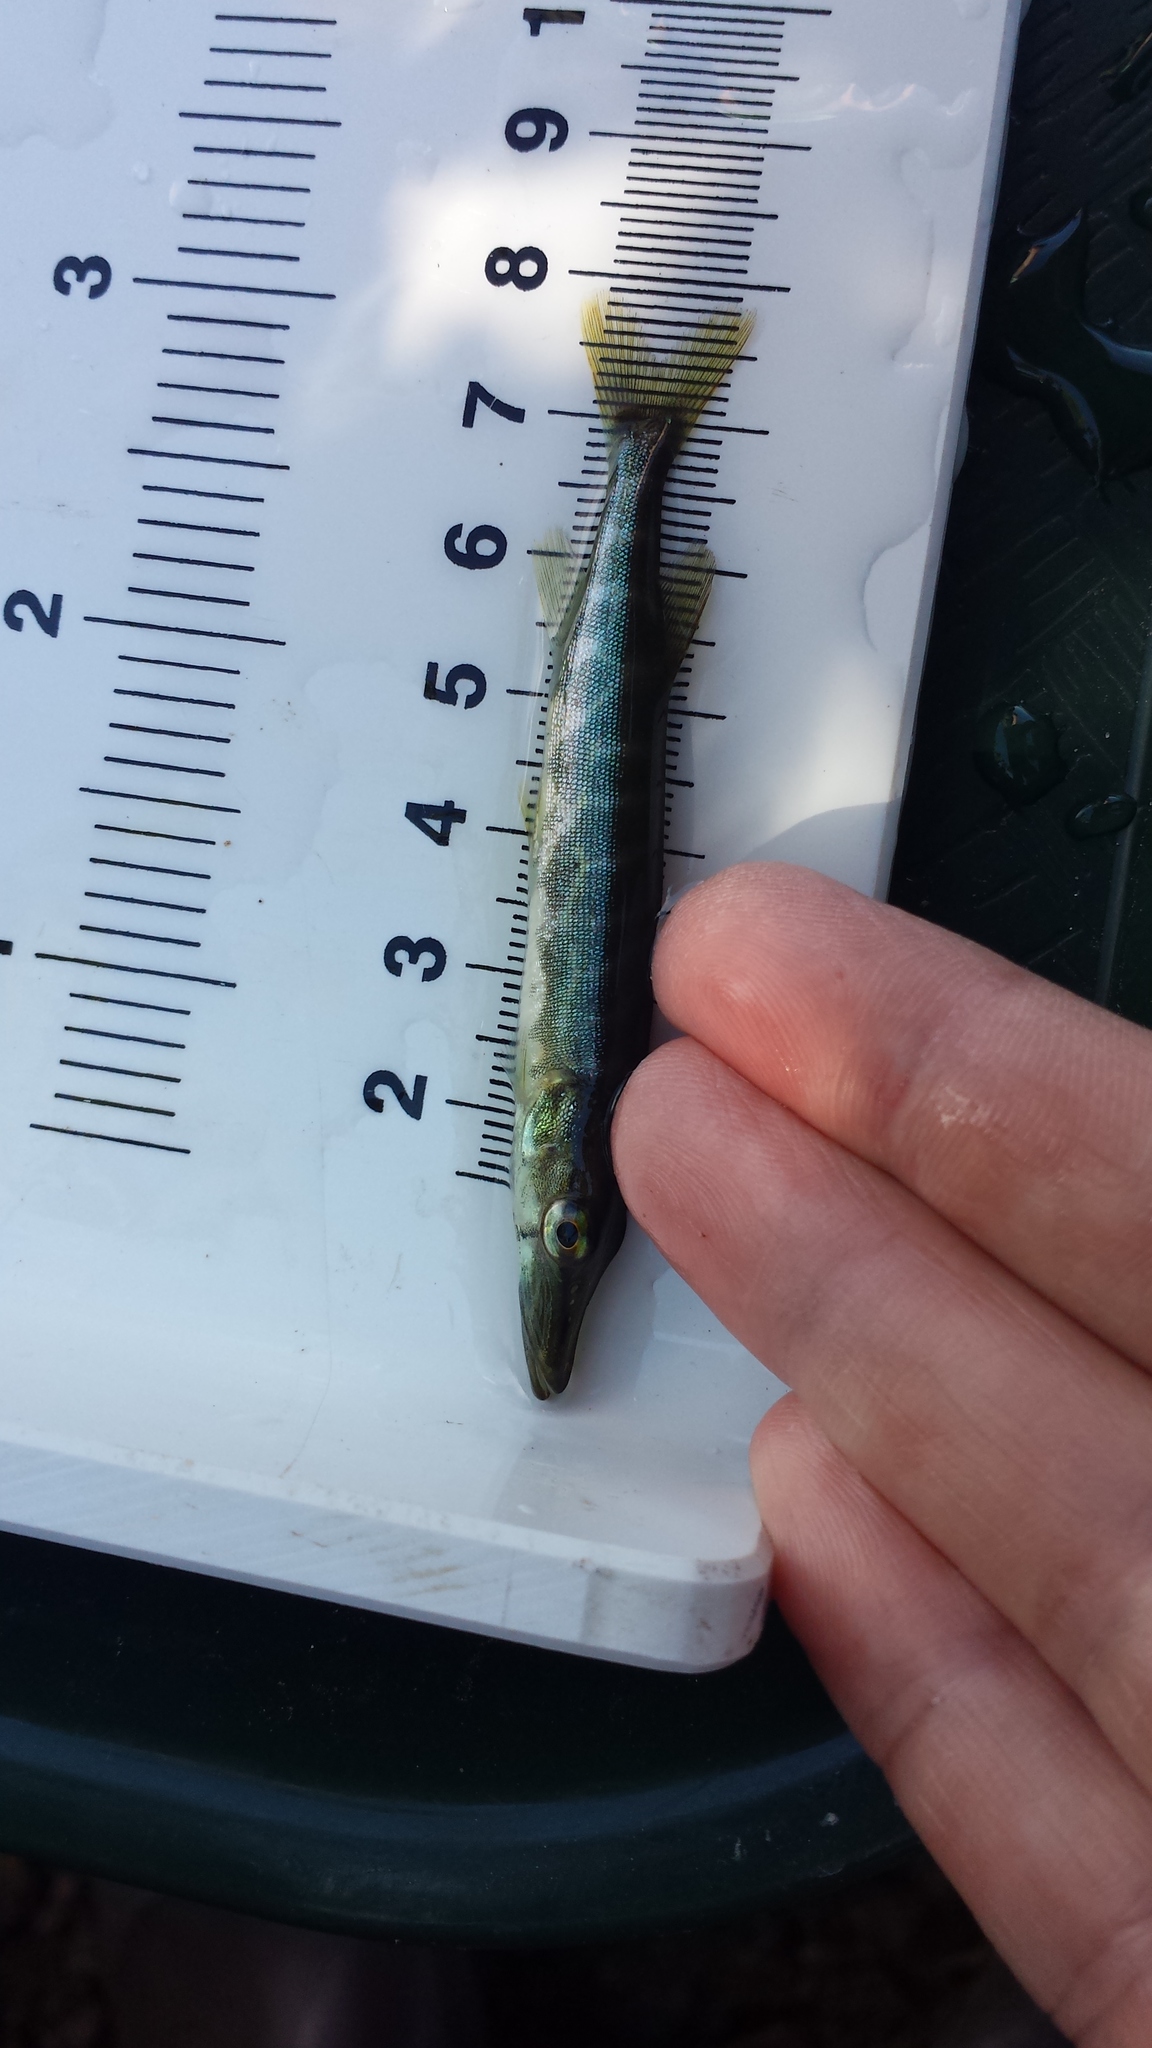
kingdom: Animalia
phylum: Chordata
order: Esociformes
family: Esocidae
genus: Esox
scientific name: Esox niger
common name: Chain pickerel
